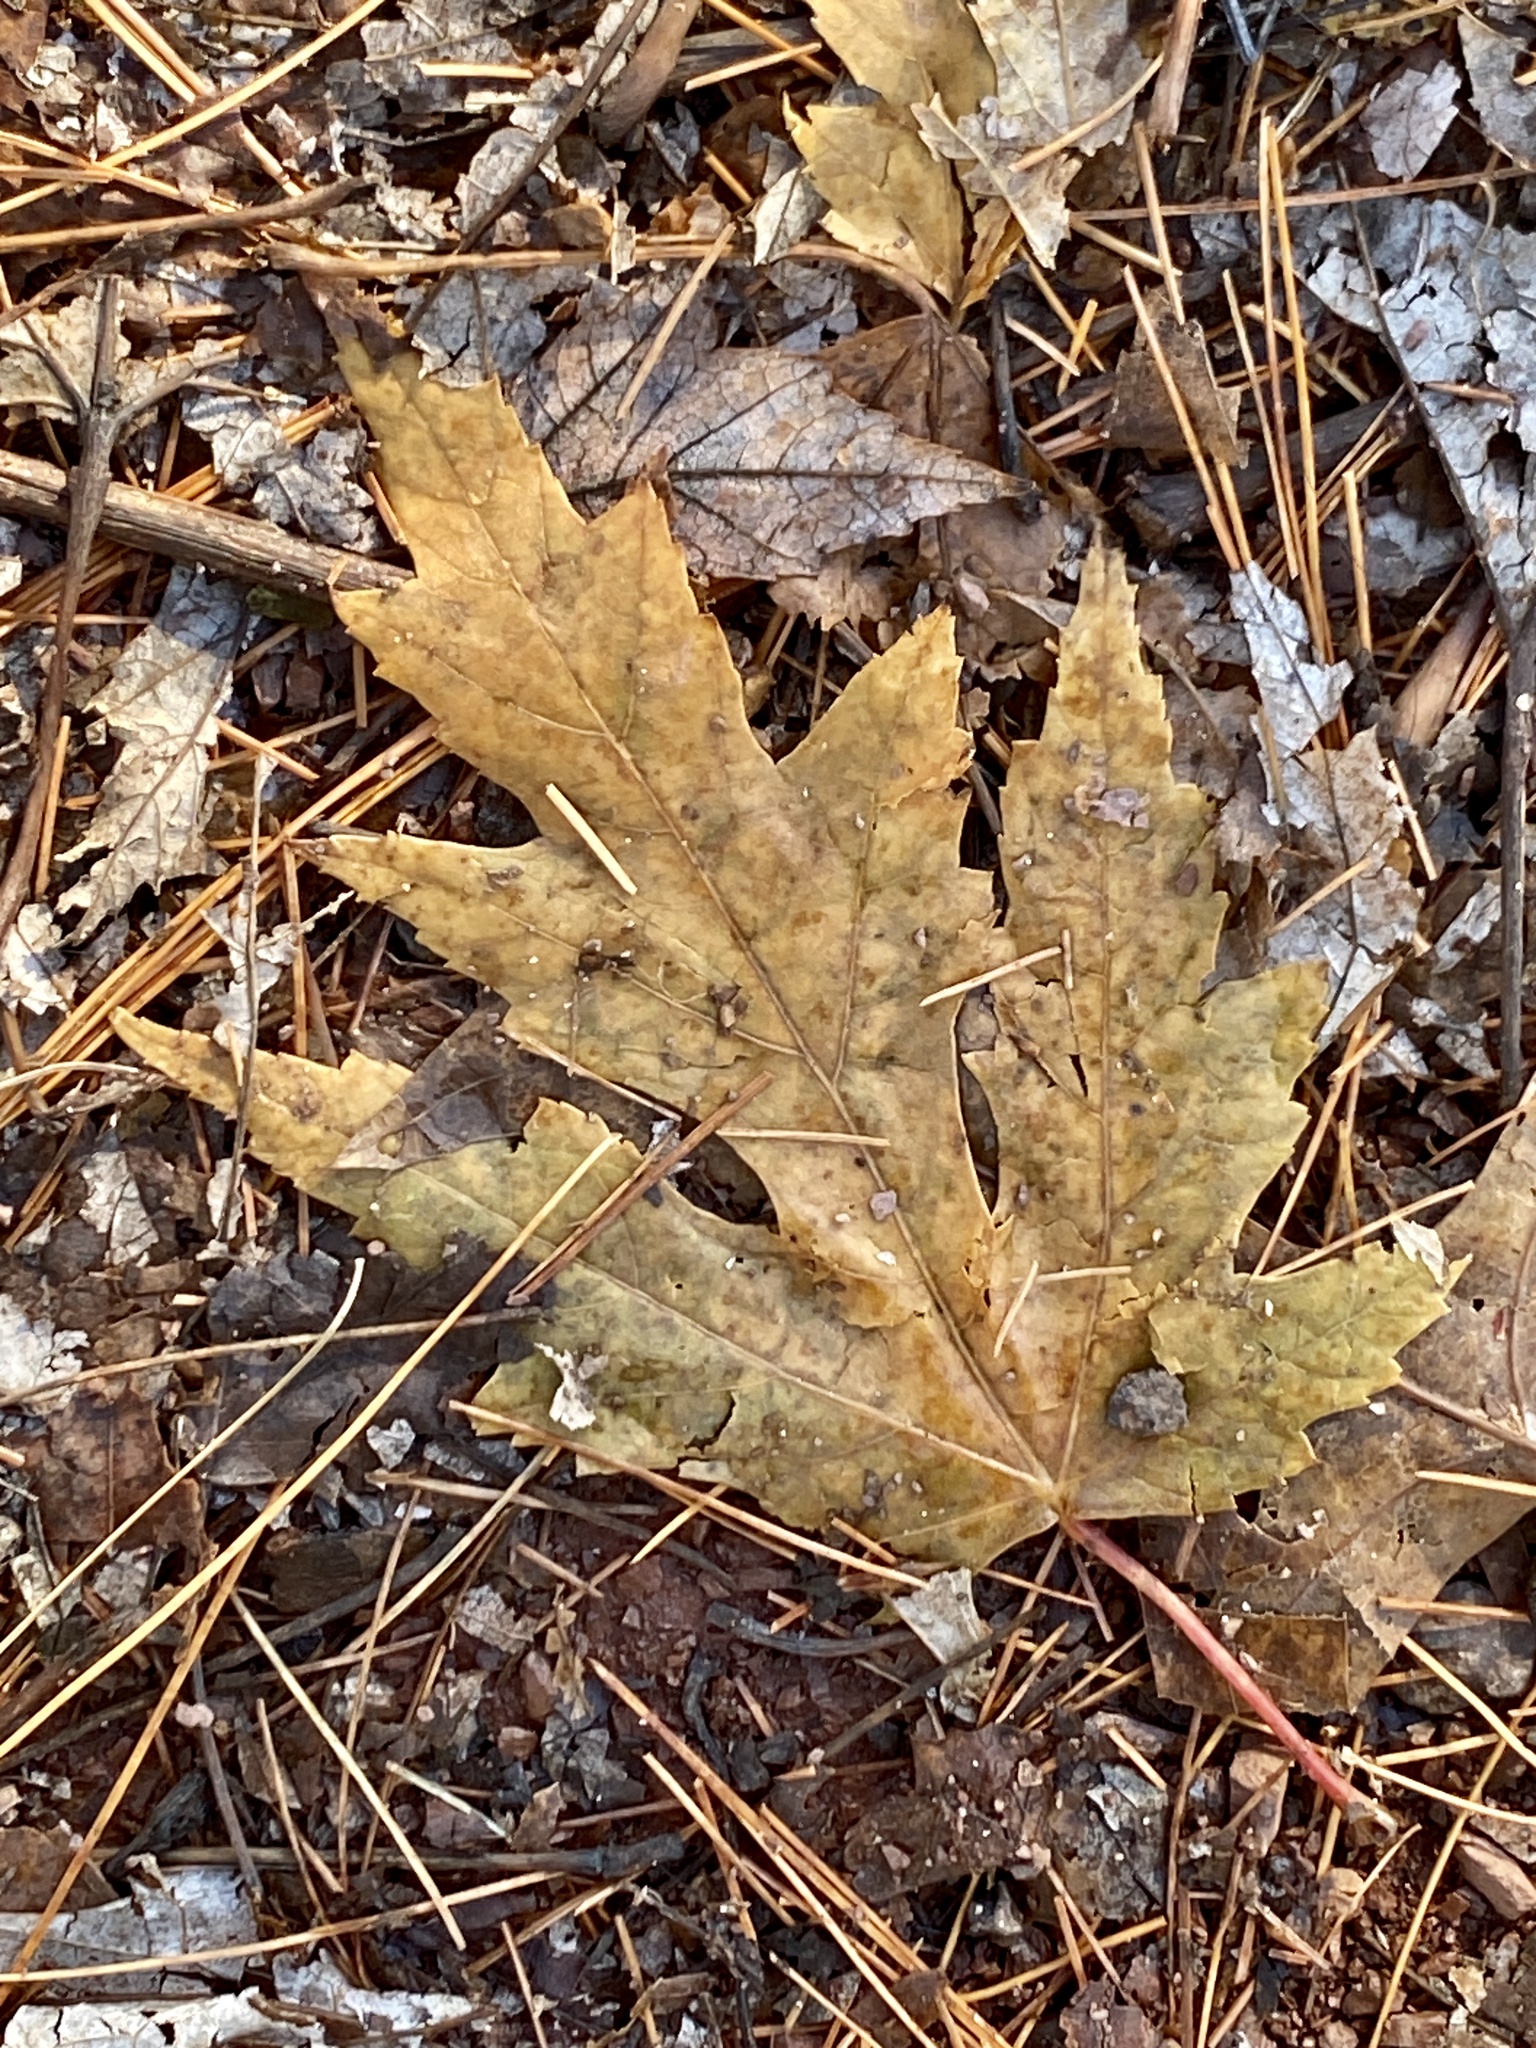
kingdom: Plantae
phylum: Tracheophyta
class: Magnoliopsida
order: Sapindales
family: Sapindaceae
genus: Acer
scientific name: Acer saccharinum
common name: Silver maple
